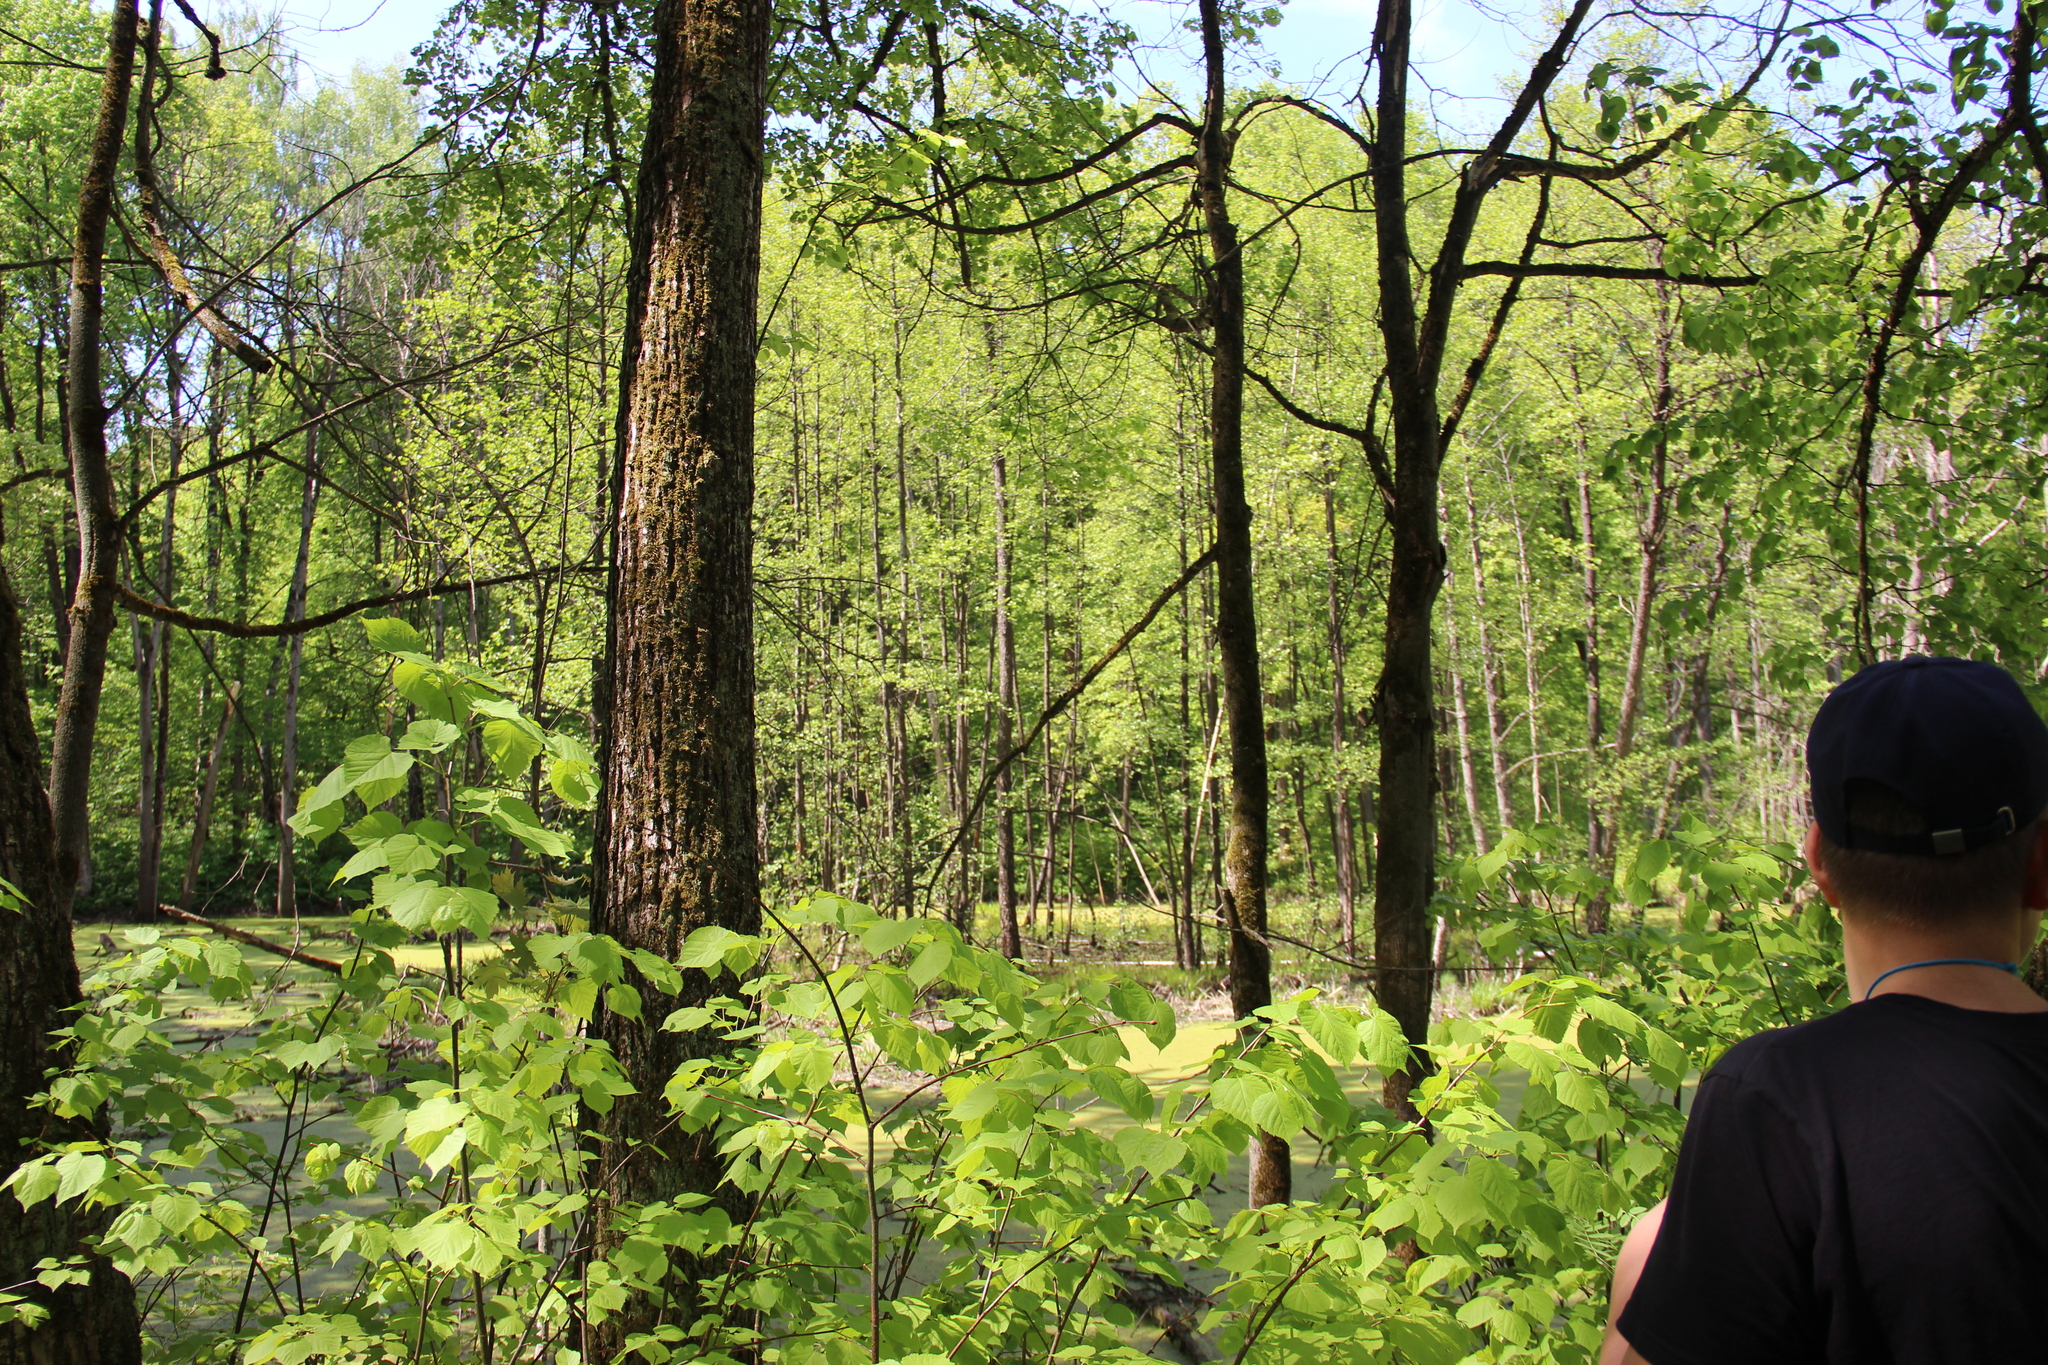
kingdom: Plantae
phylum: Tracheophyta
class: Magnoliopsida
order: Malvales
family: Malvaceae
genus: Tilia
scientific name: Tilia cordata
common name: Small-leaved lime
